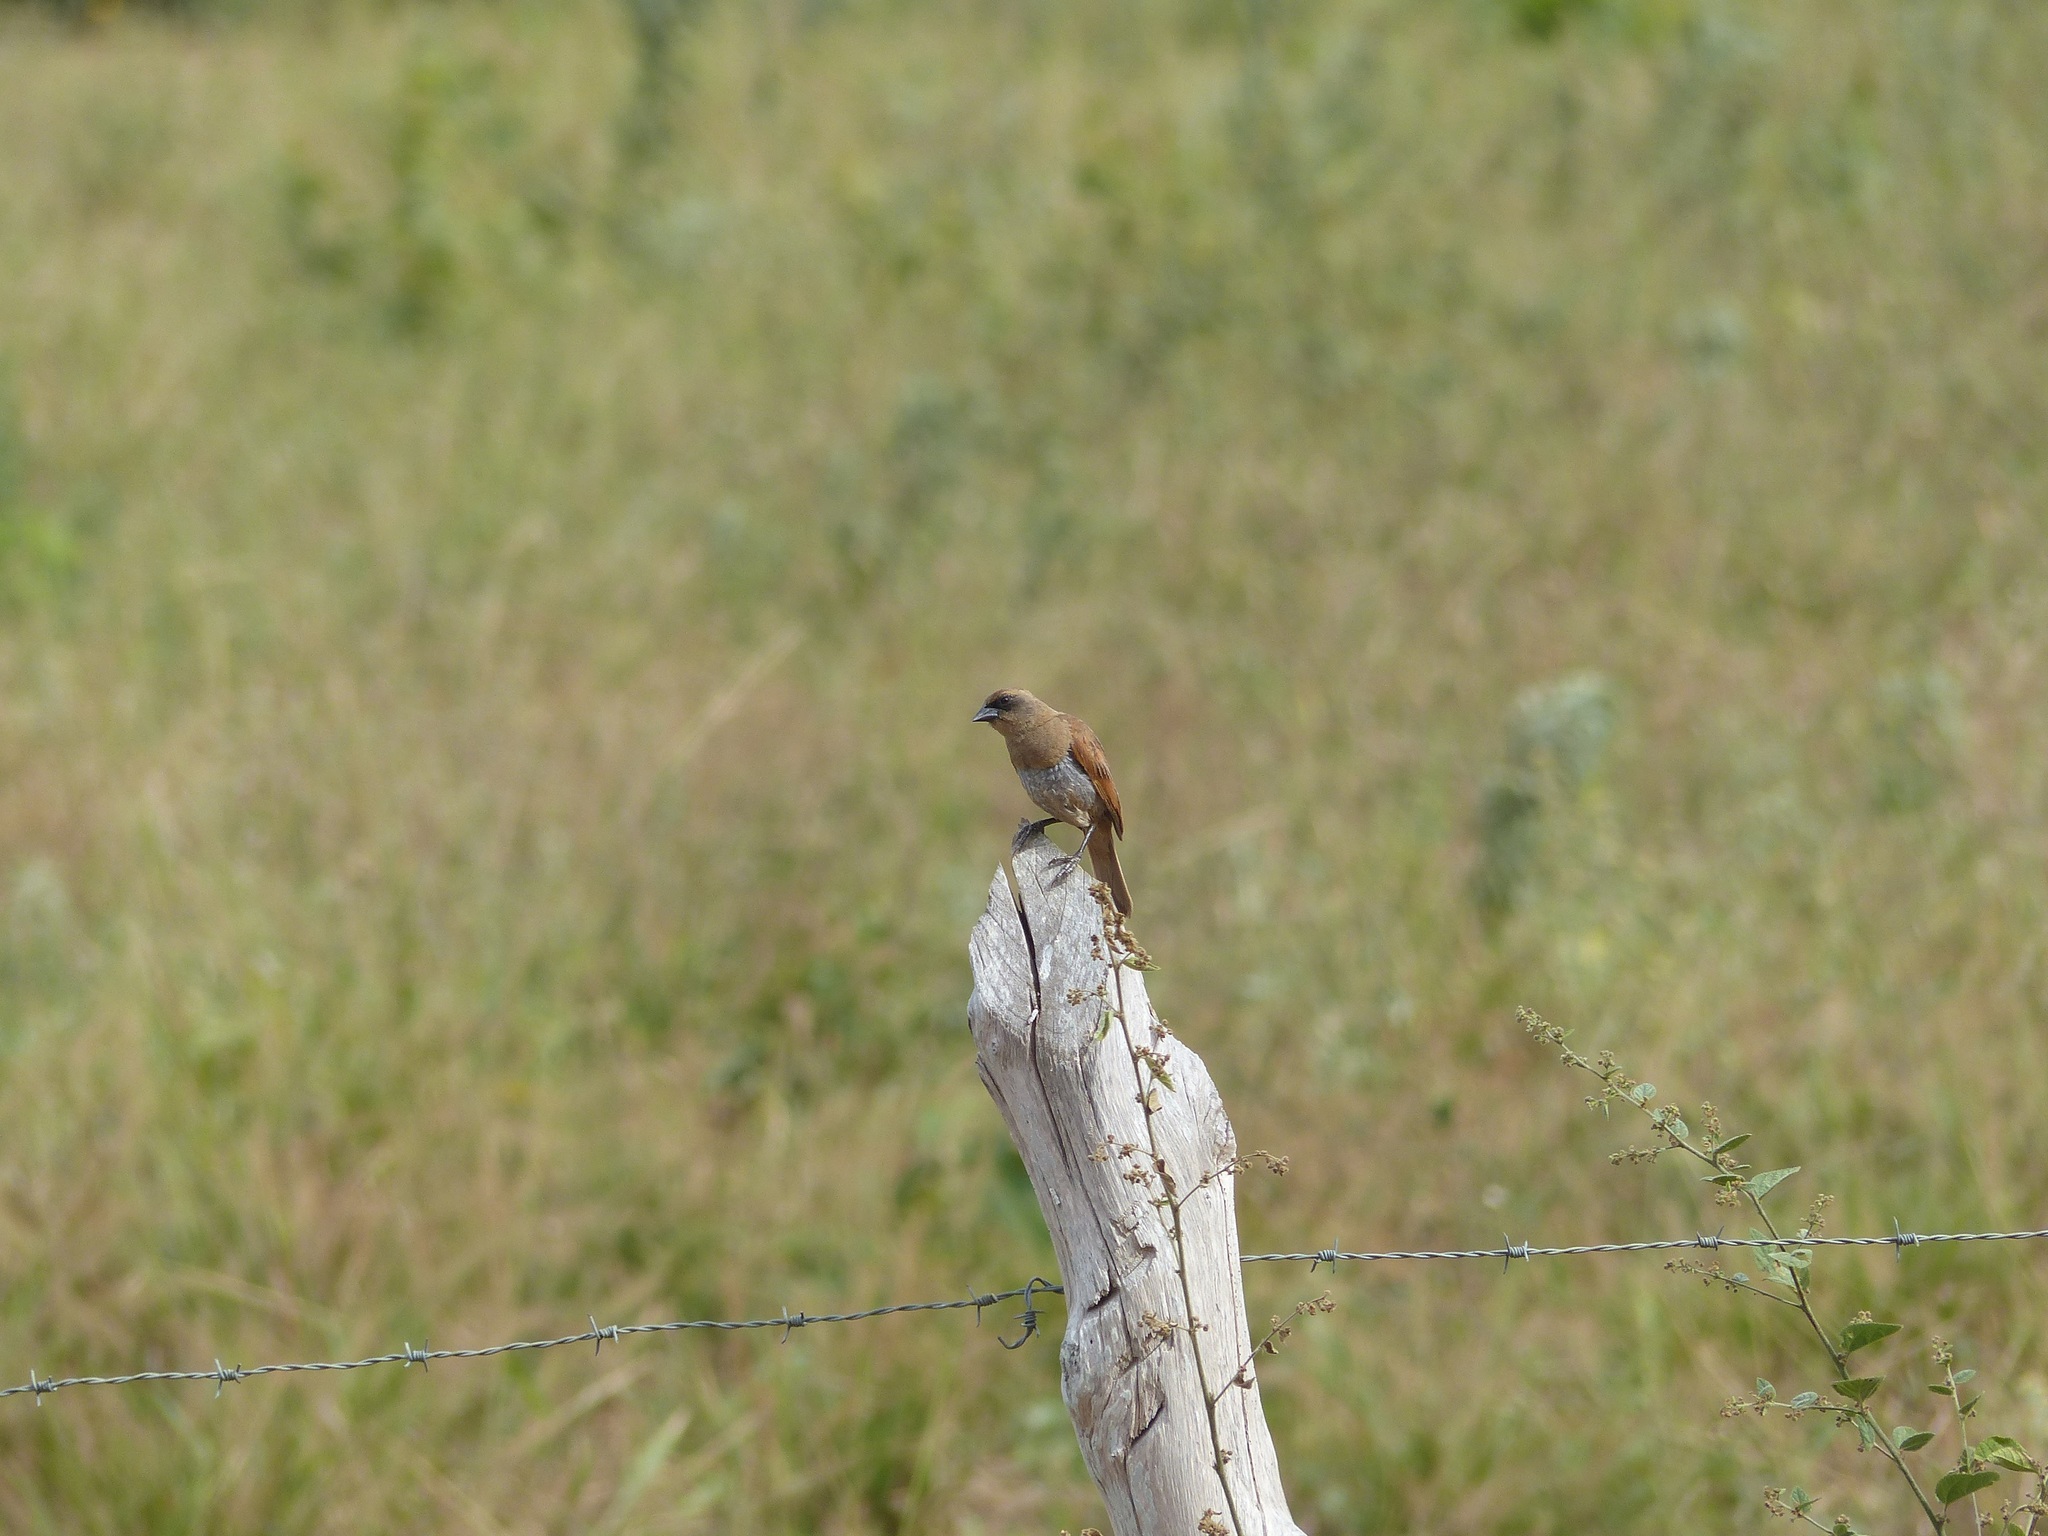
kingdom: Animalia
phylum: Chordata
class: Aves
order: Passeriformes
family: Icteridae
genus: Agelaioides
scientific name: Agelaioides badius
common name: Baywing
